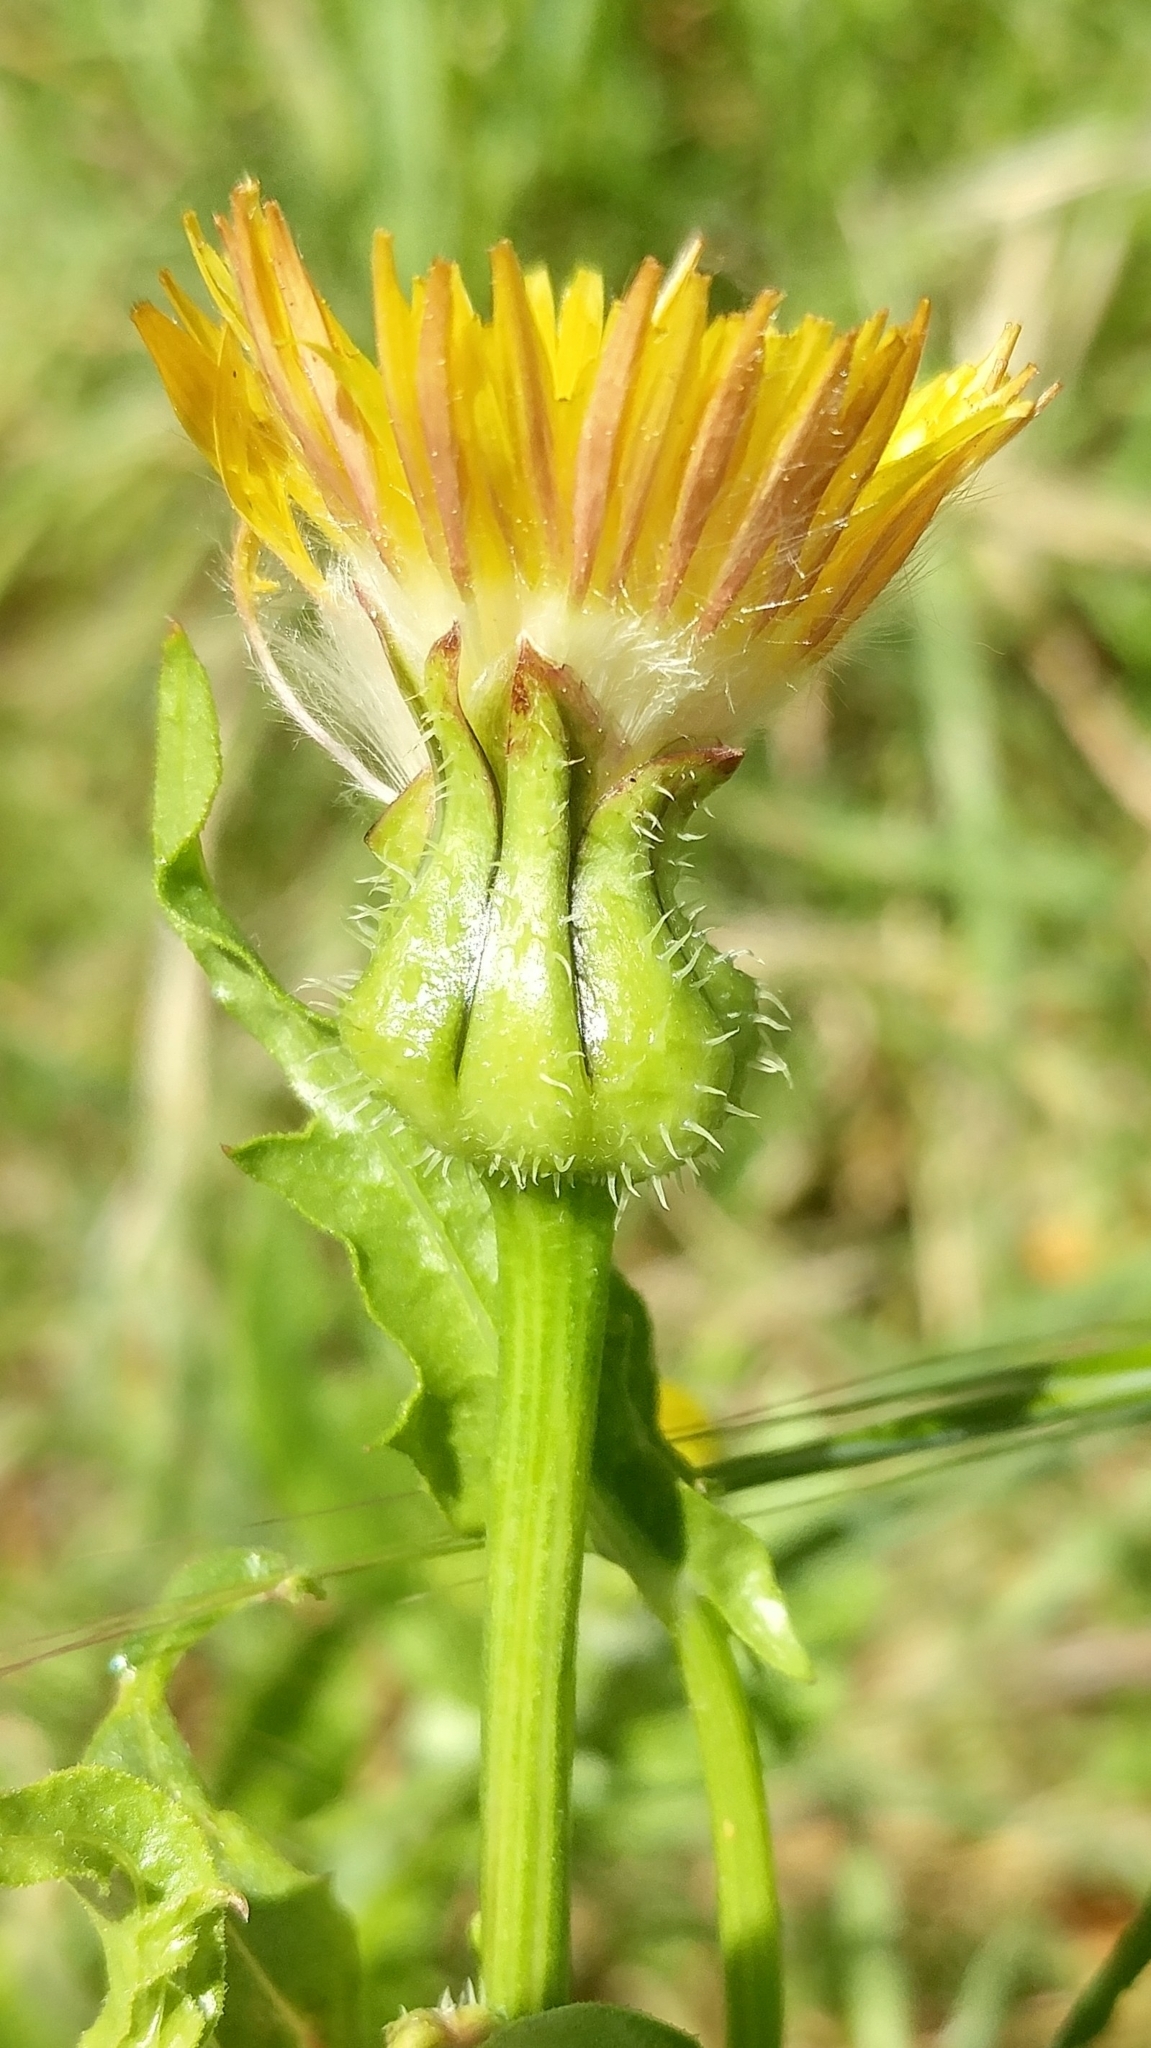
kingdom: Plantae
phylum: Tracheophyta
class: Magnoliopsida
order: Asterales
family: Asteraceae
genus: Urospermum
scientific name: Urospermum picroides
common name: False hawkbit
